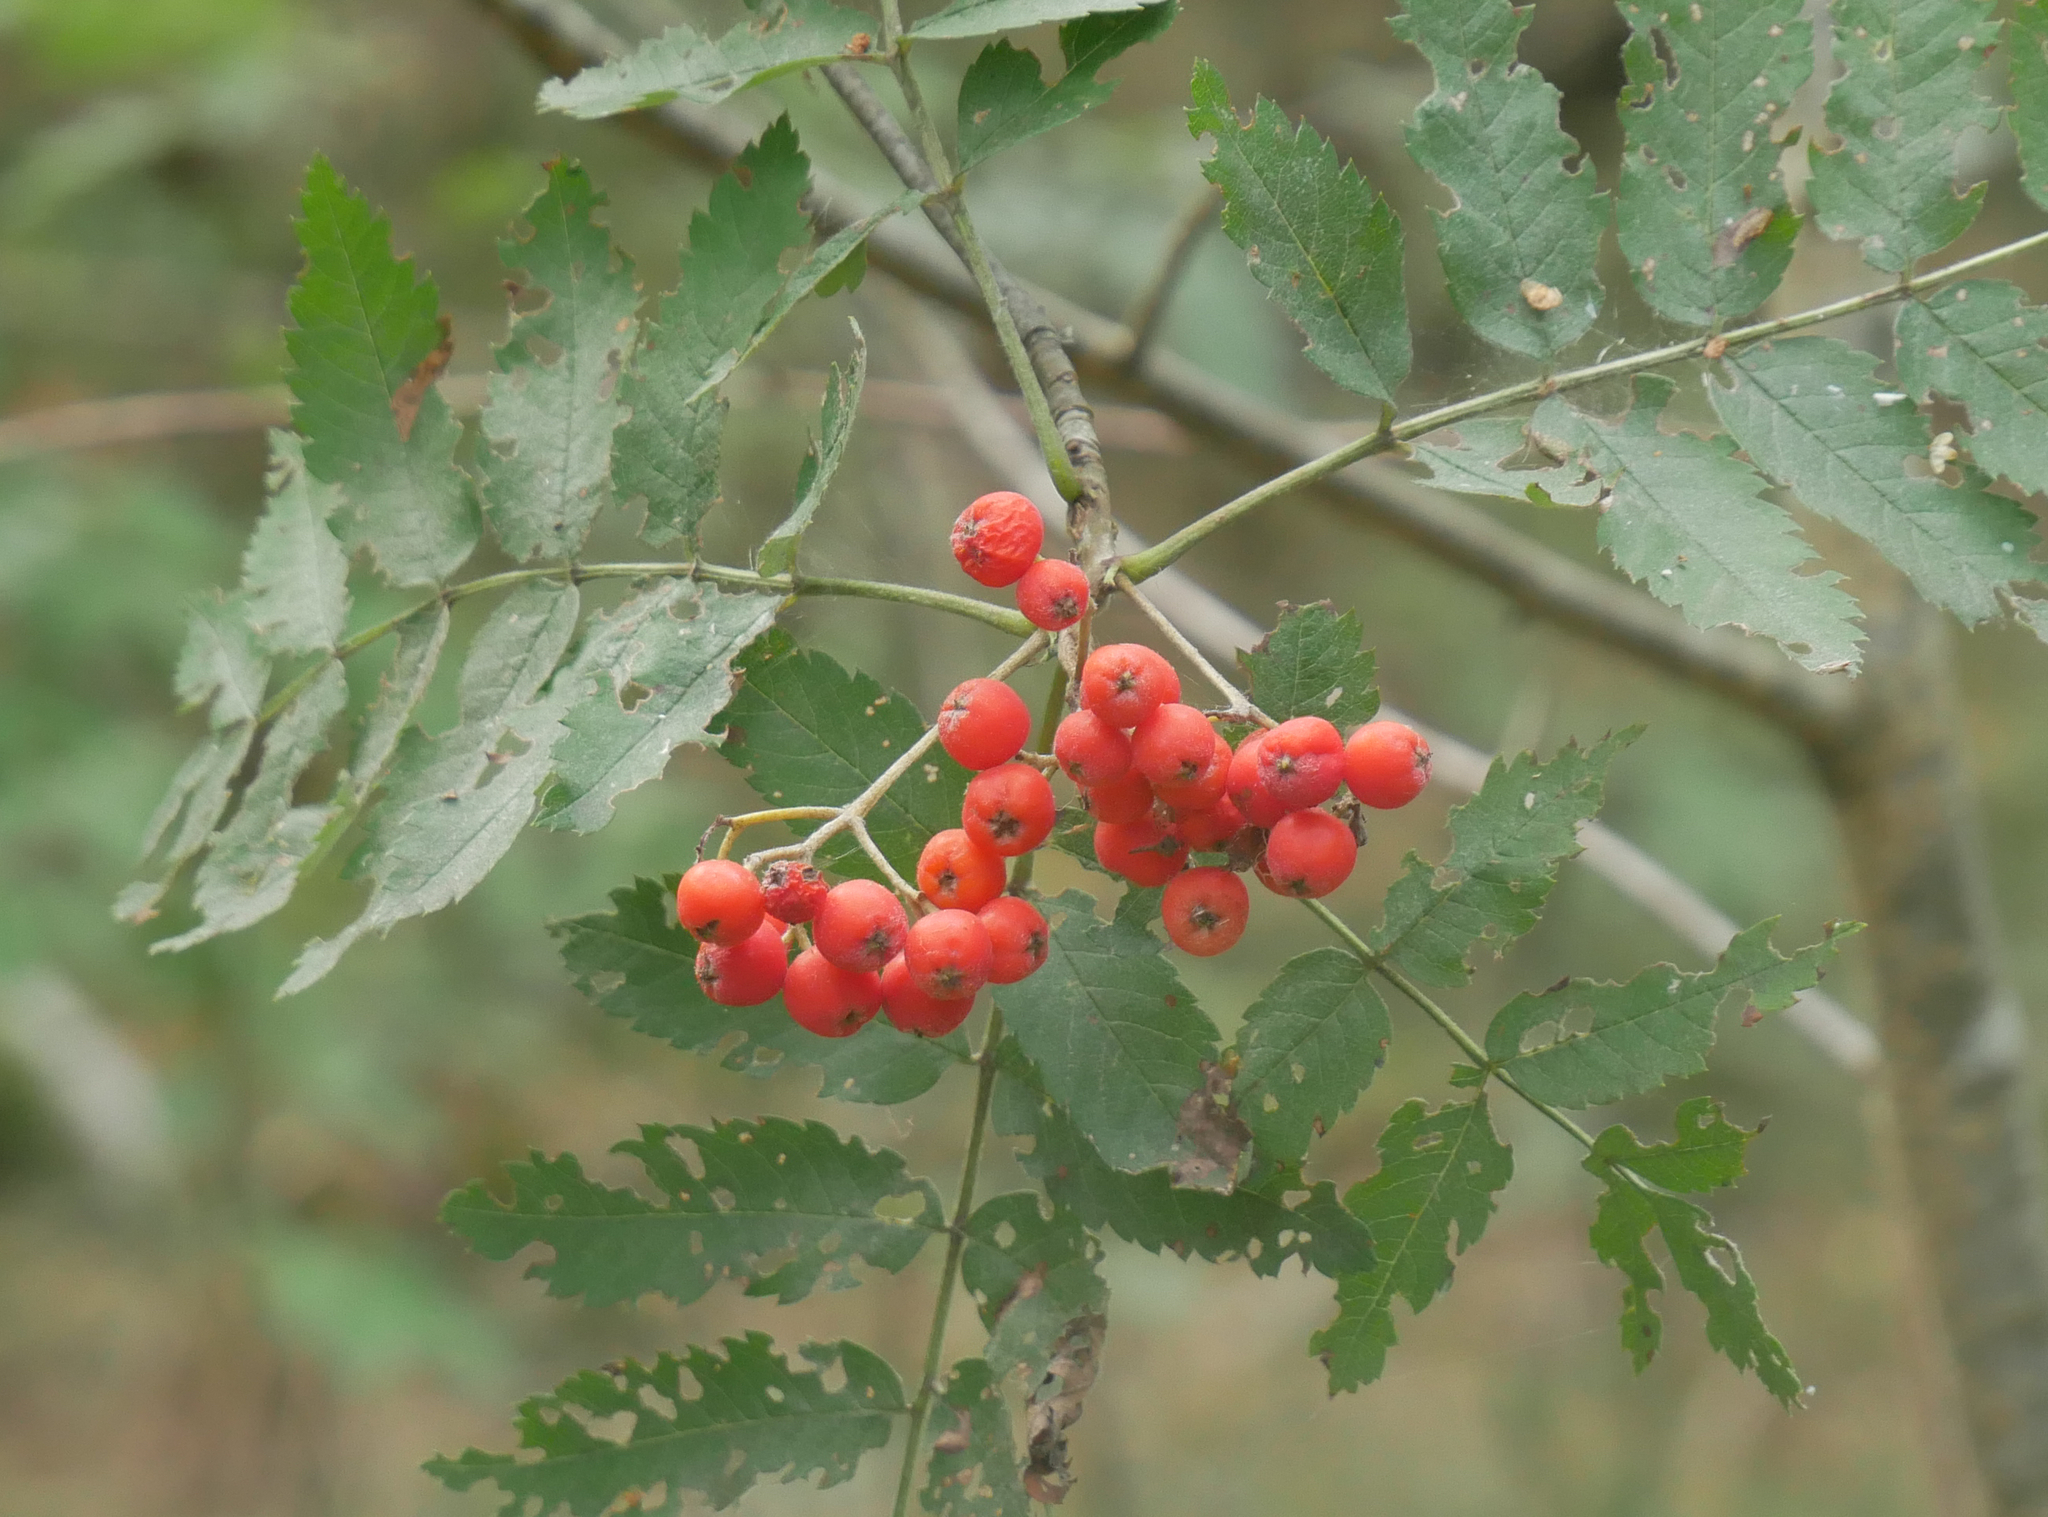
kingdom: Plantae
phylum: Tracheophyta
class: Magnoliopsida
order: Rosales
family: Rosaceae
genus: Sorbus
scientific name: Sorbus aucuparia
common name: Rowan
